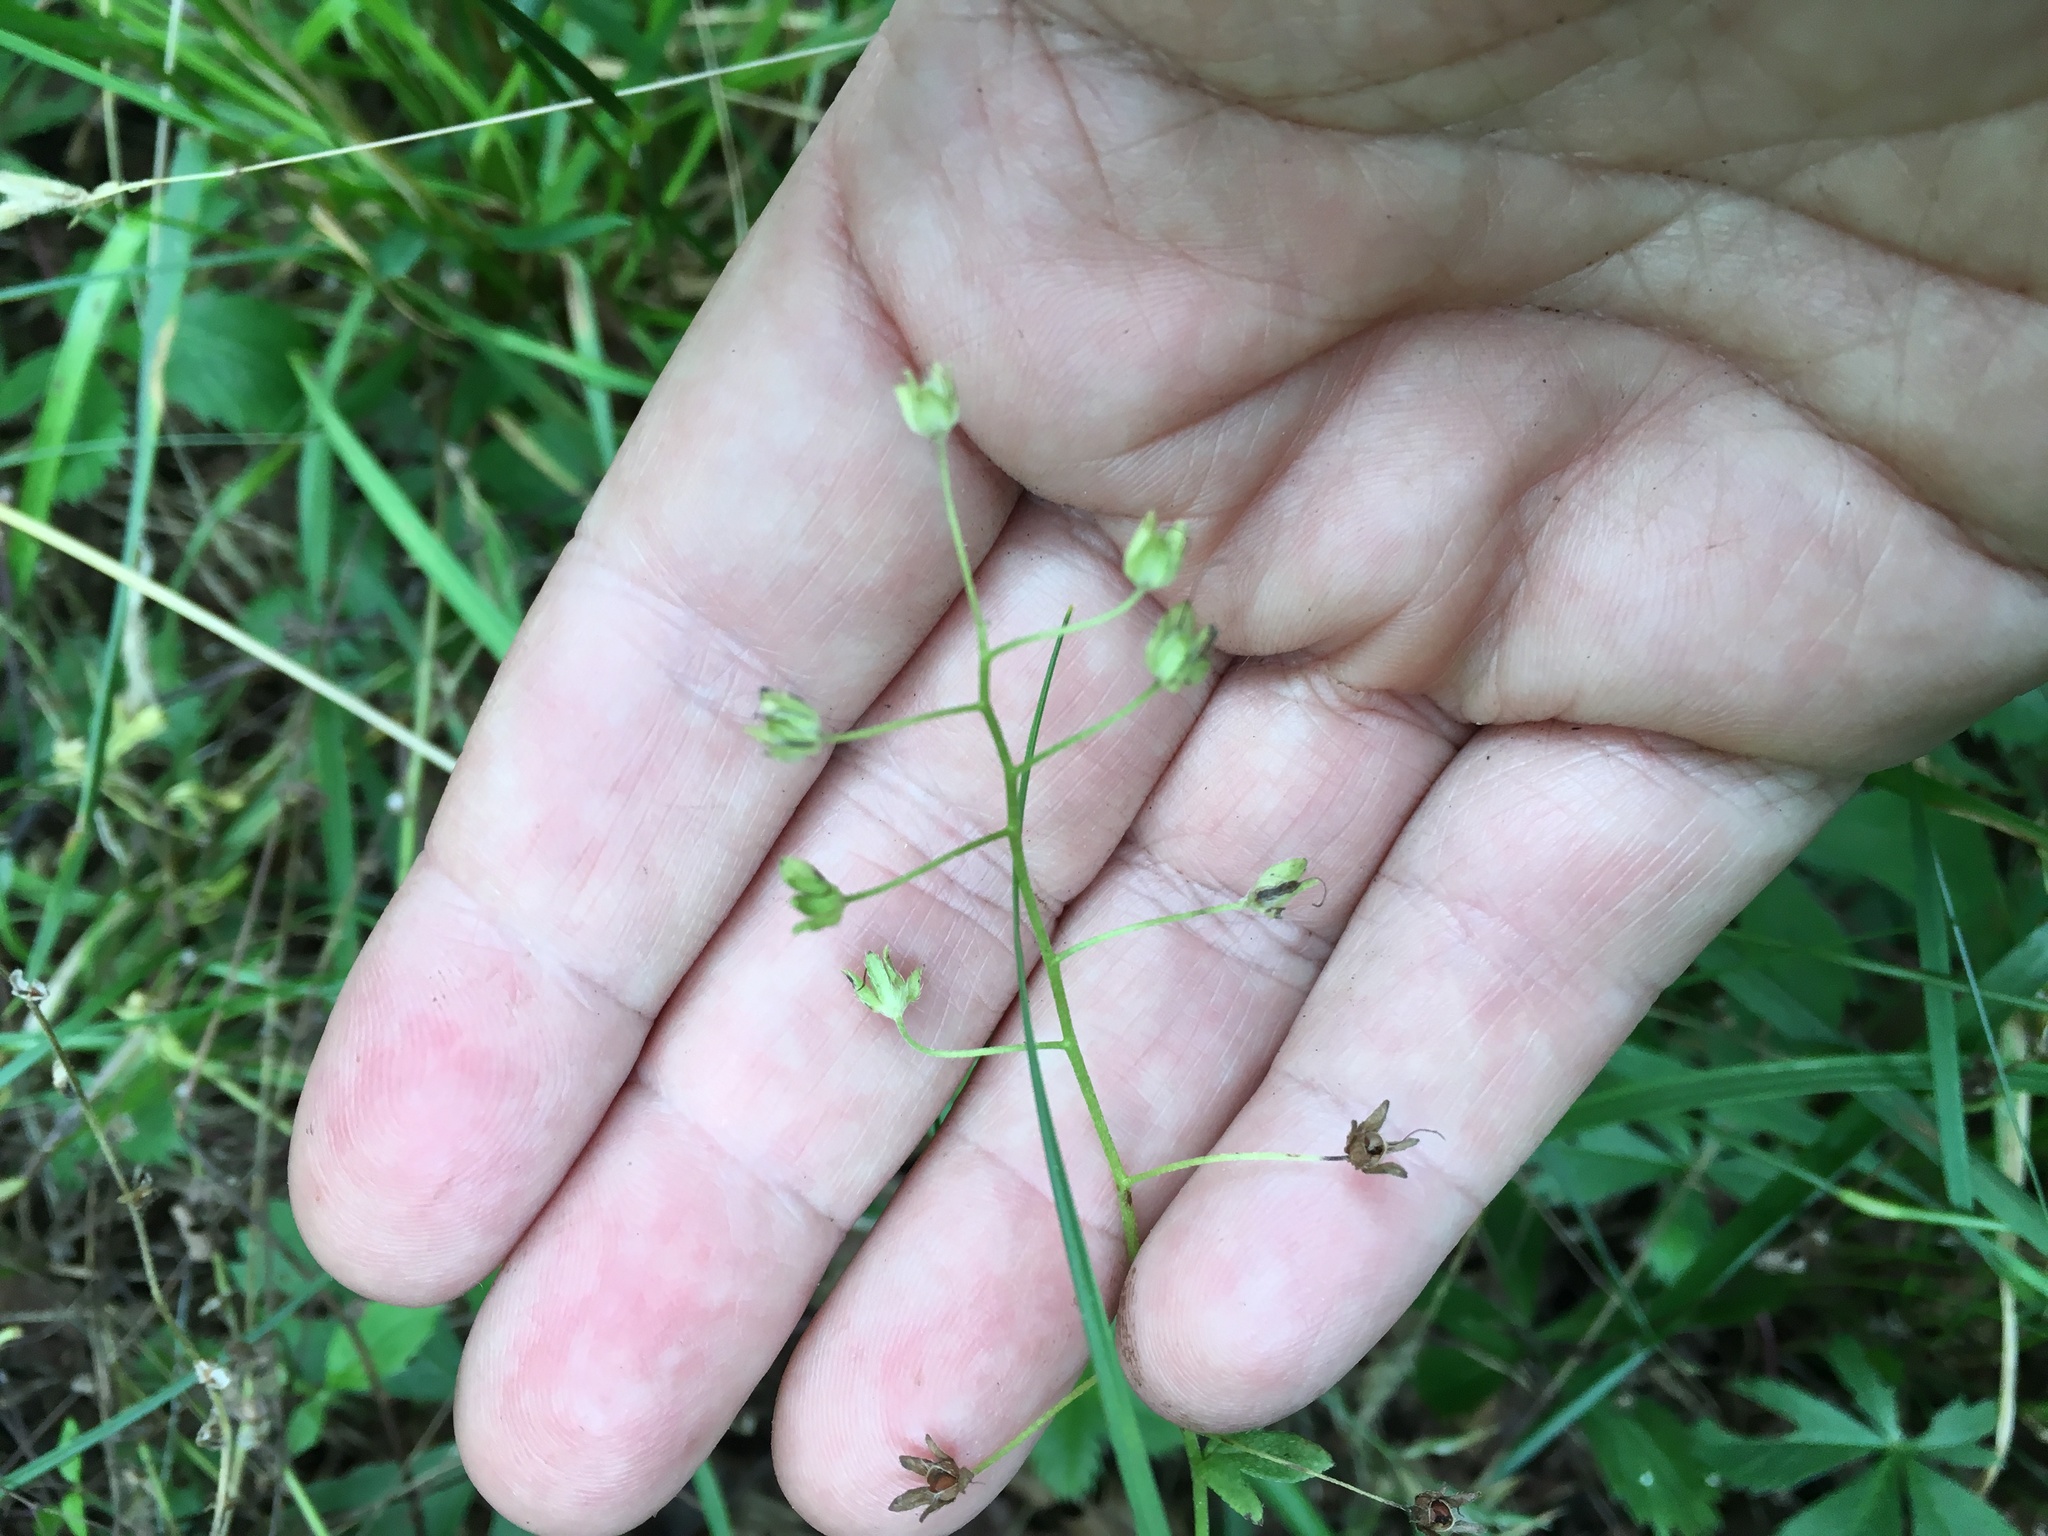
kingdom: Plantae
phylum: Tracheophyta
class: Magnoliopsida
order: Boraginales
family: Hydrophyllaceae
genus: Phacelia
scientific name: Phacelia dubia
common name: Appalachian phacelia
